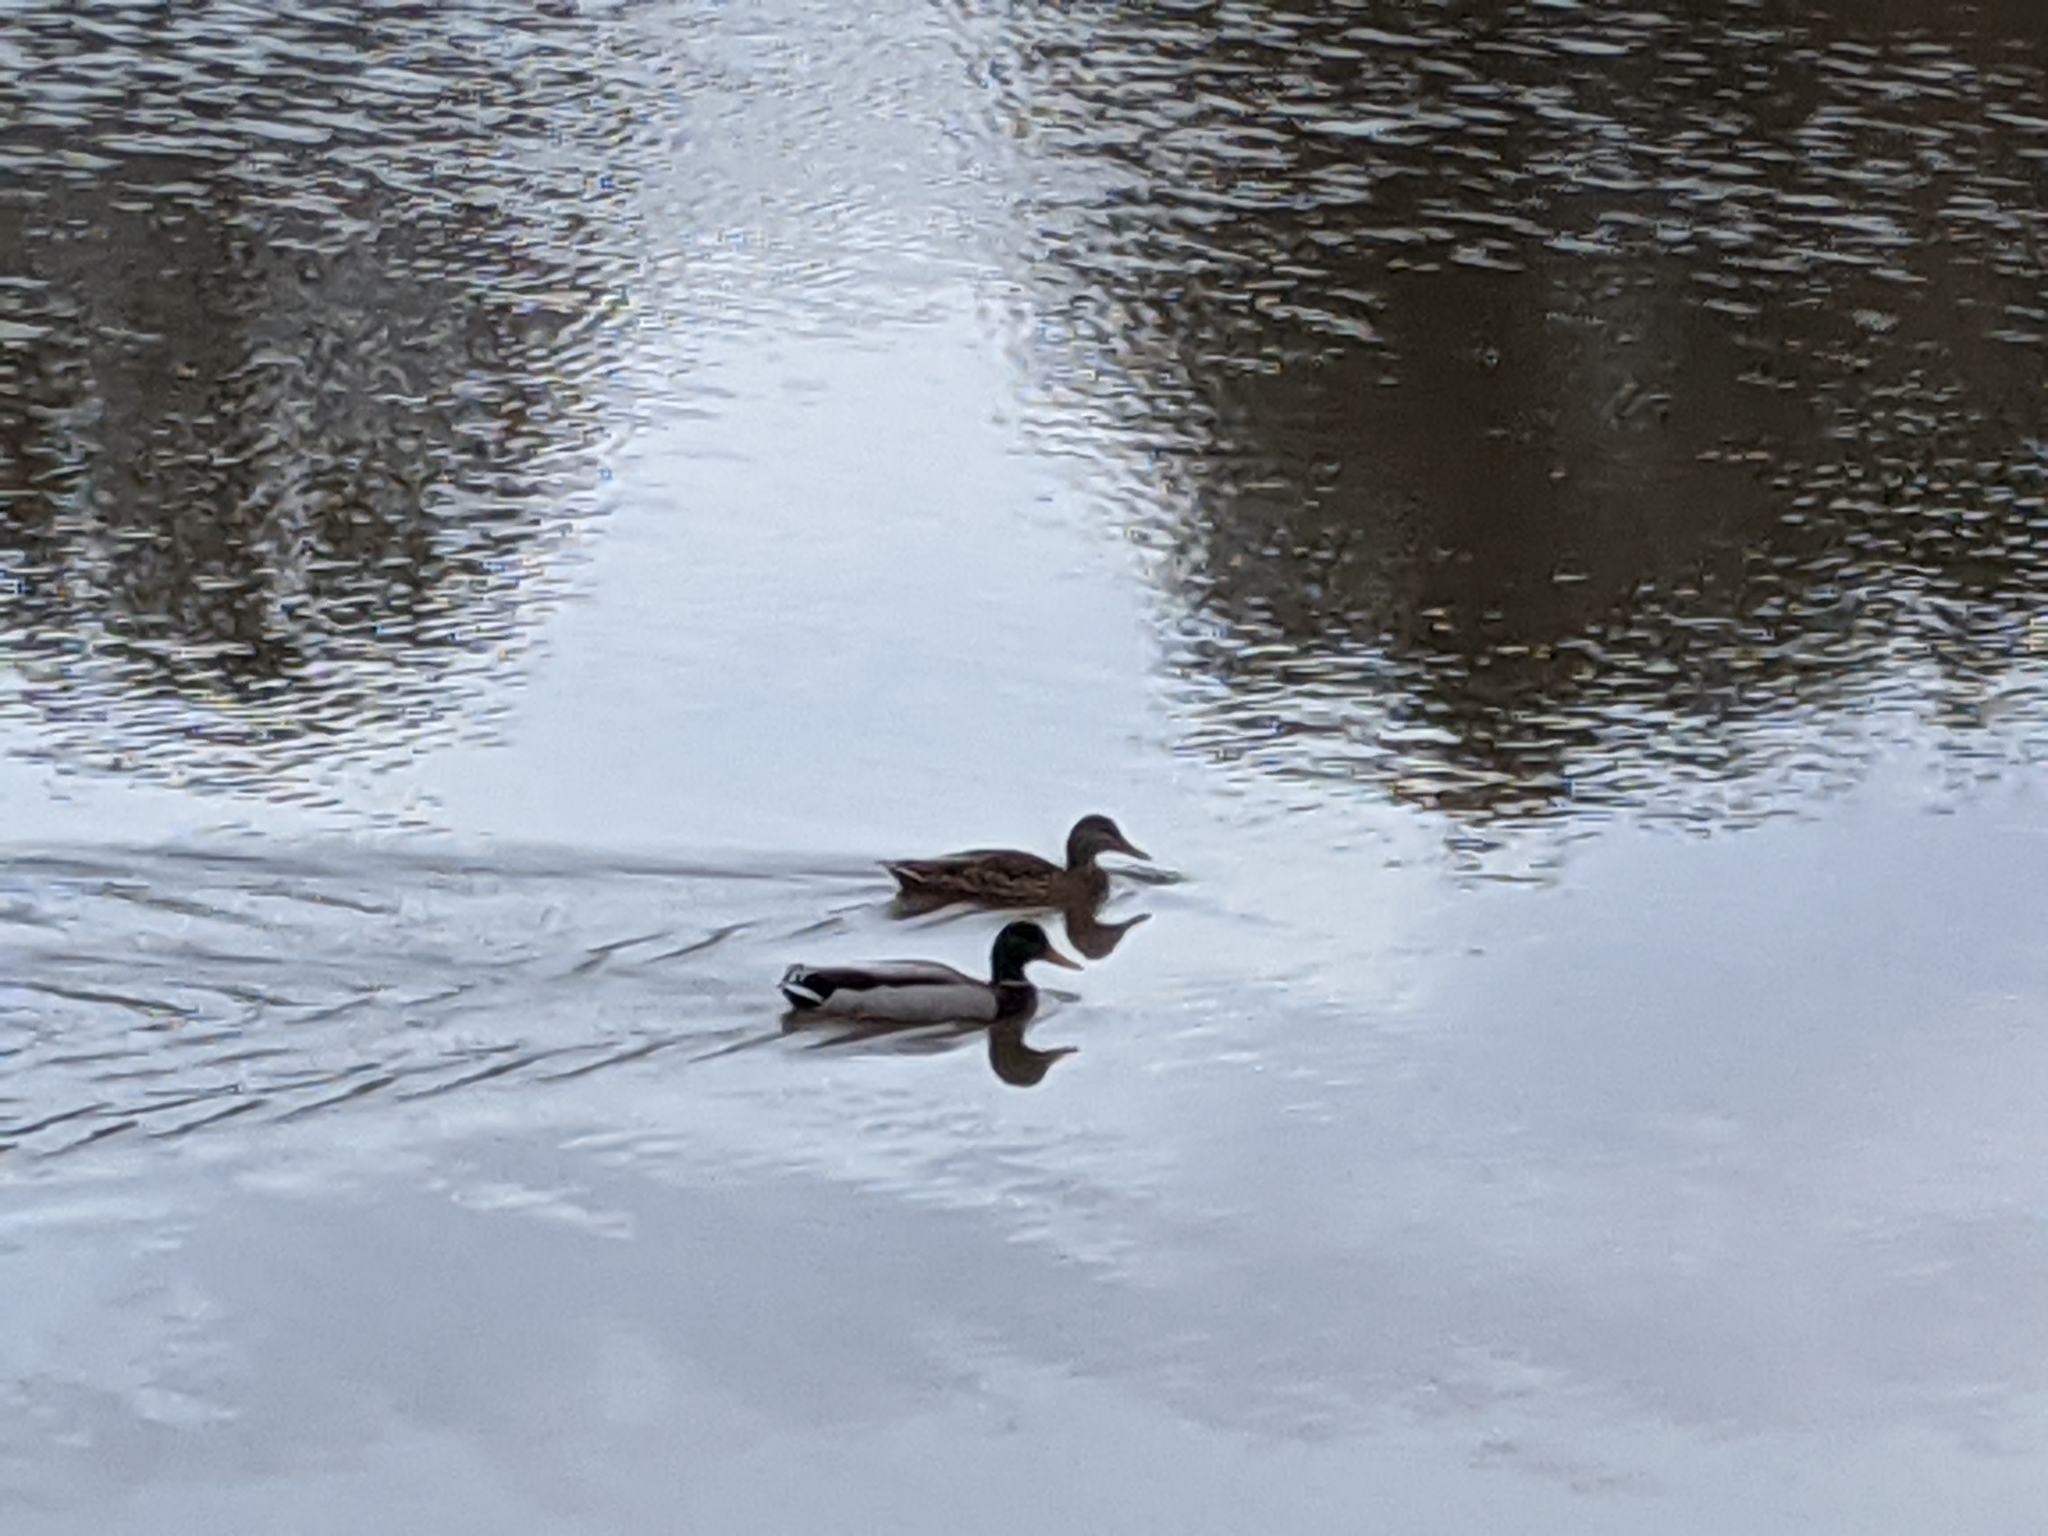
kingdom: Animalia
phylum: Chordata
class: Aves
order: Anseriformes
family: Anatidae
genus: Anas
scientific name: Anas platyrhynchos
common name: Mallard
